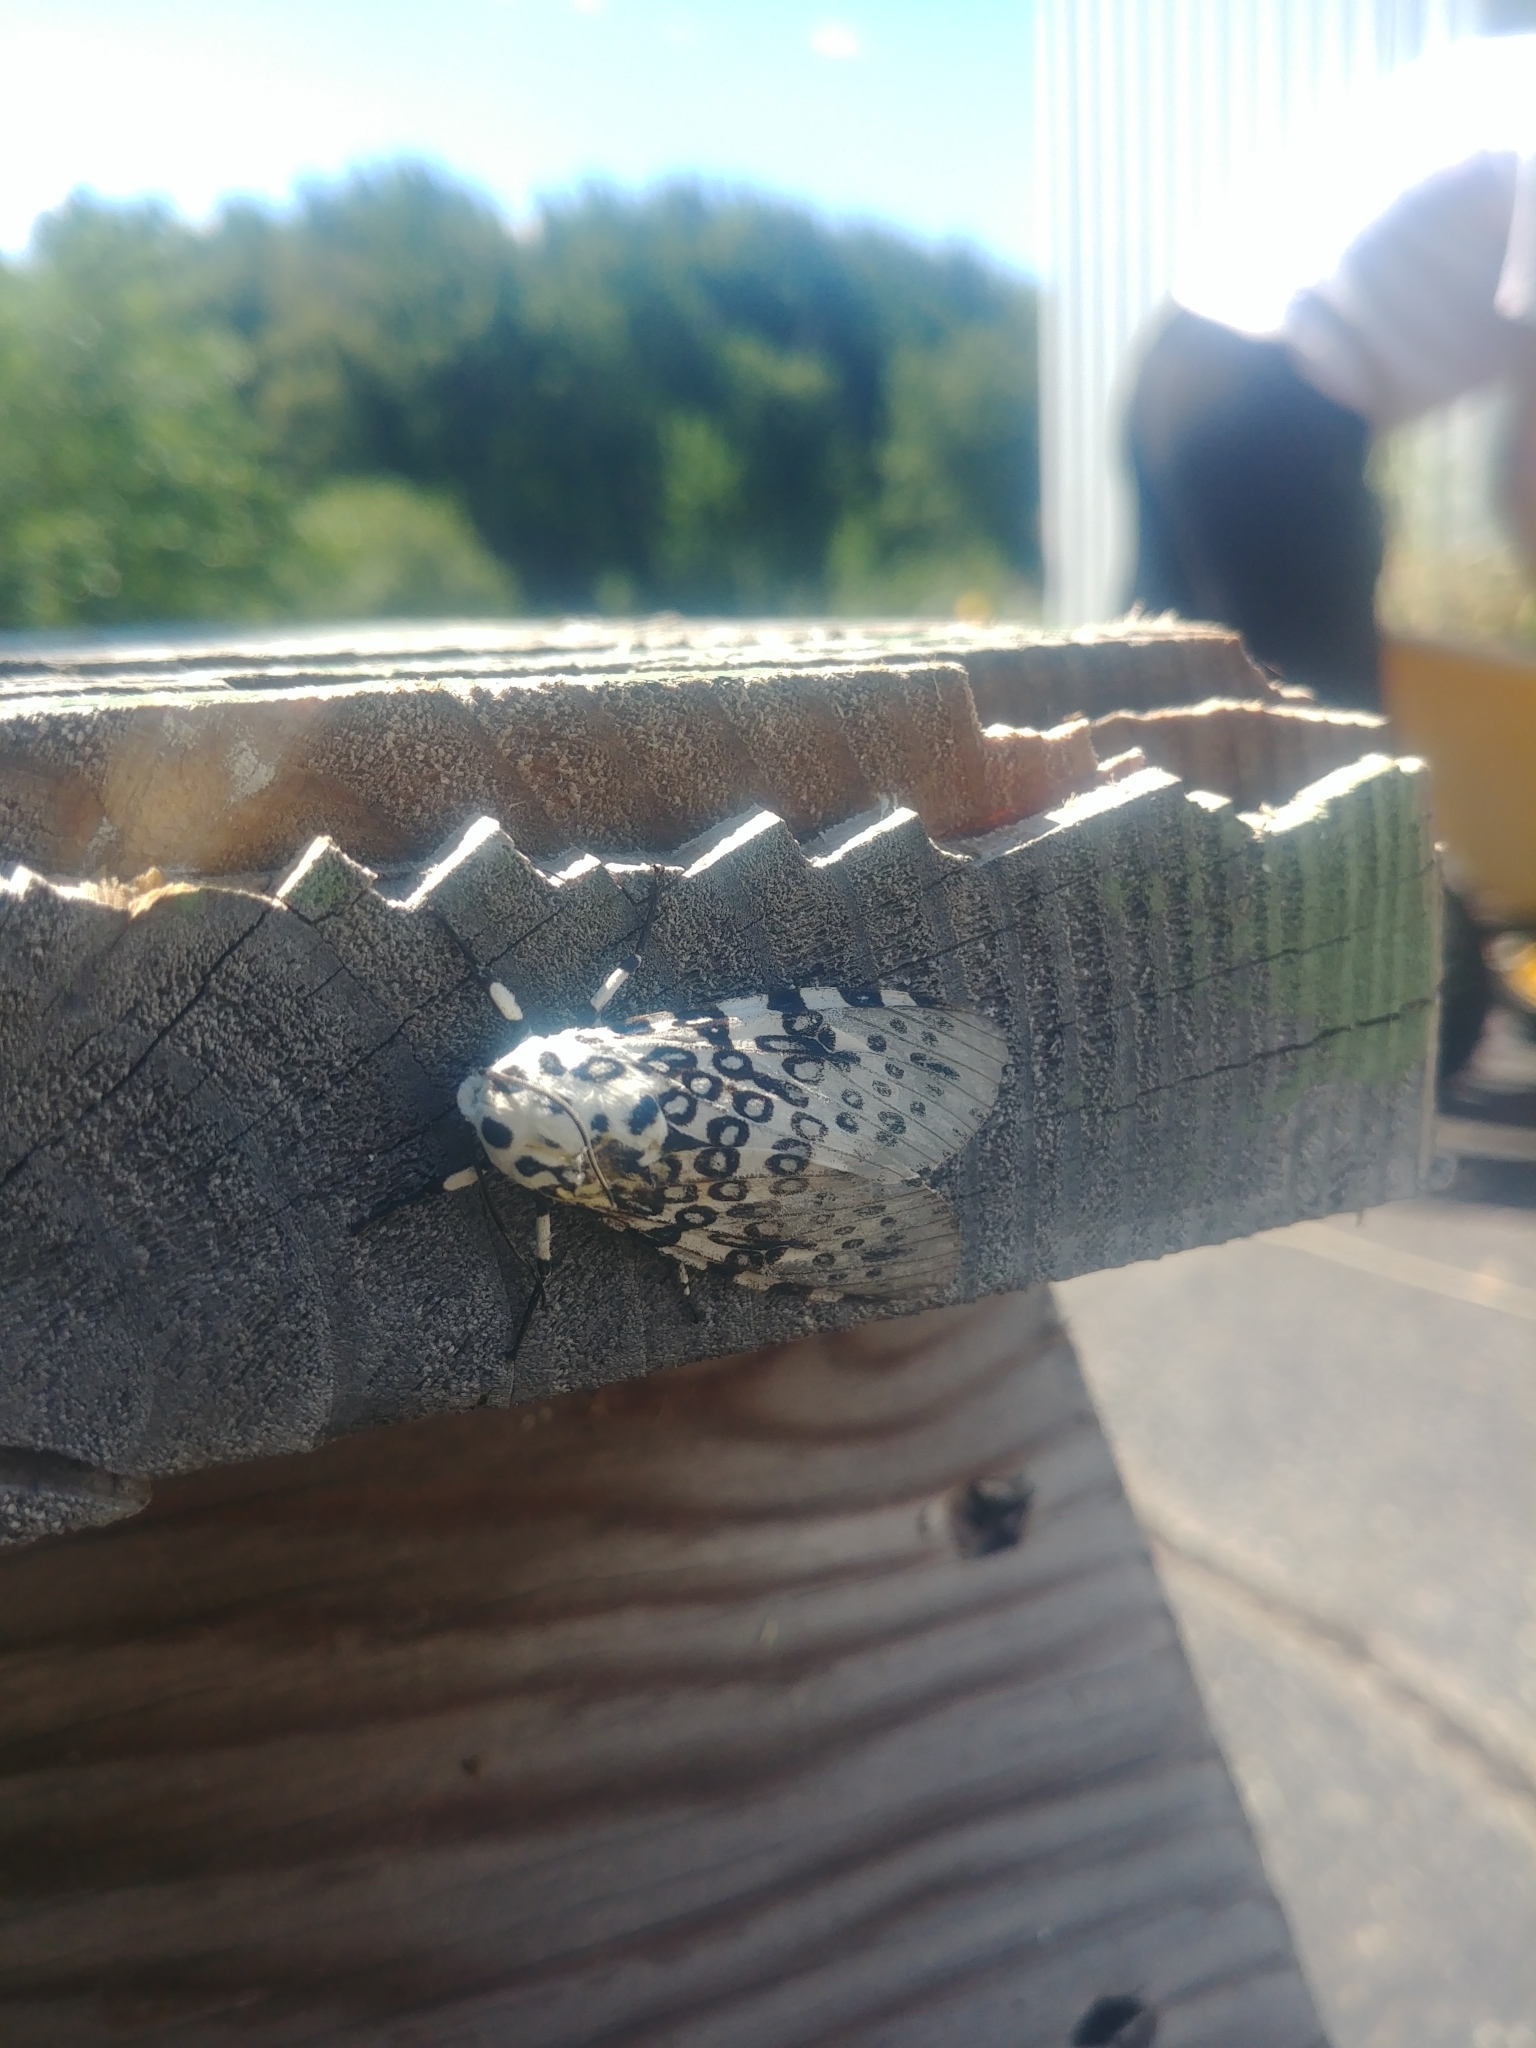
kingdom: Animalia
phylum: Arthropoda
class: Insecta
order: Lepidoptera
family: Erebidae
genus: Hypercompe
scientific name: Hypercompe scribonia
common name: Giant leopard moth
